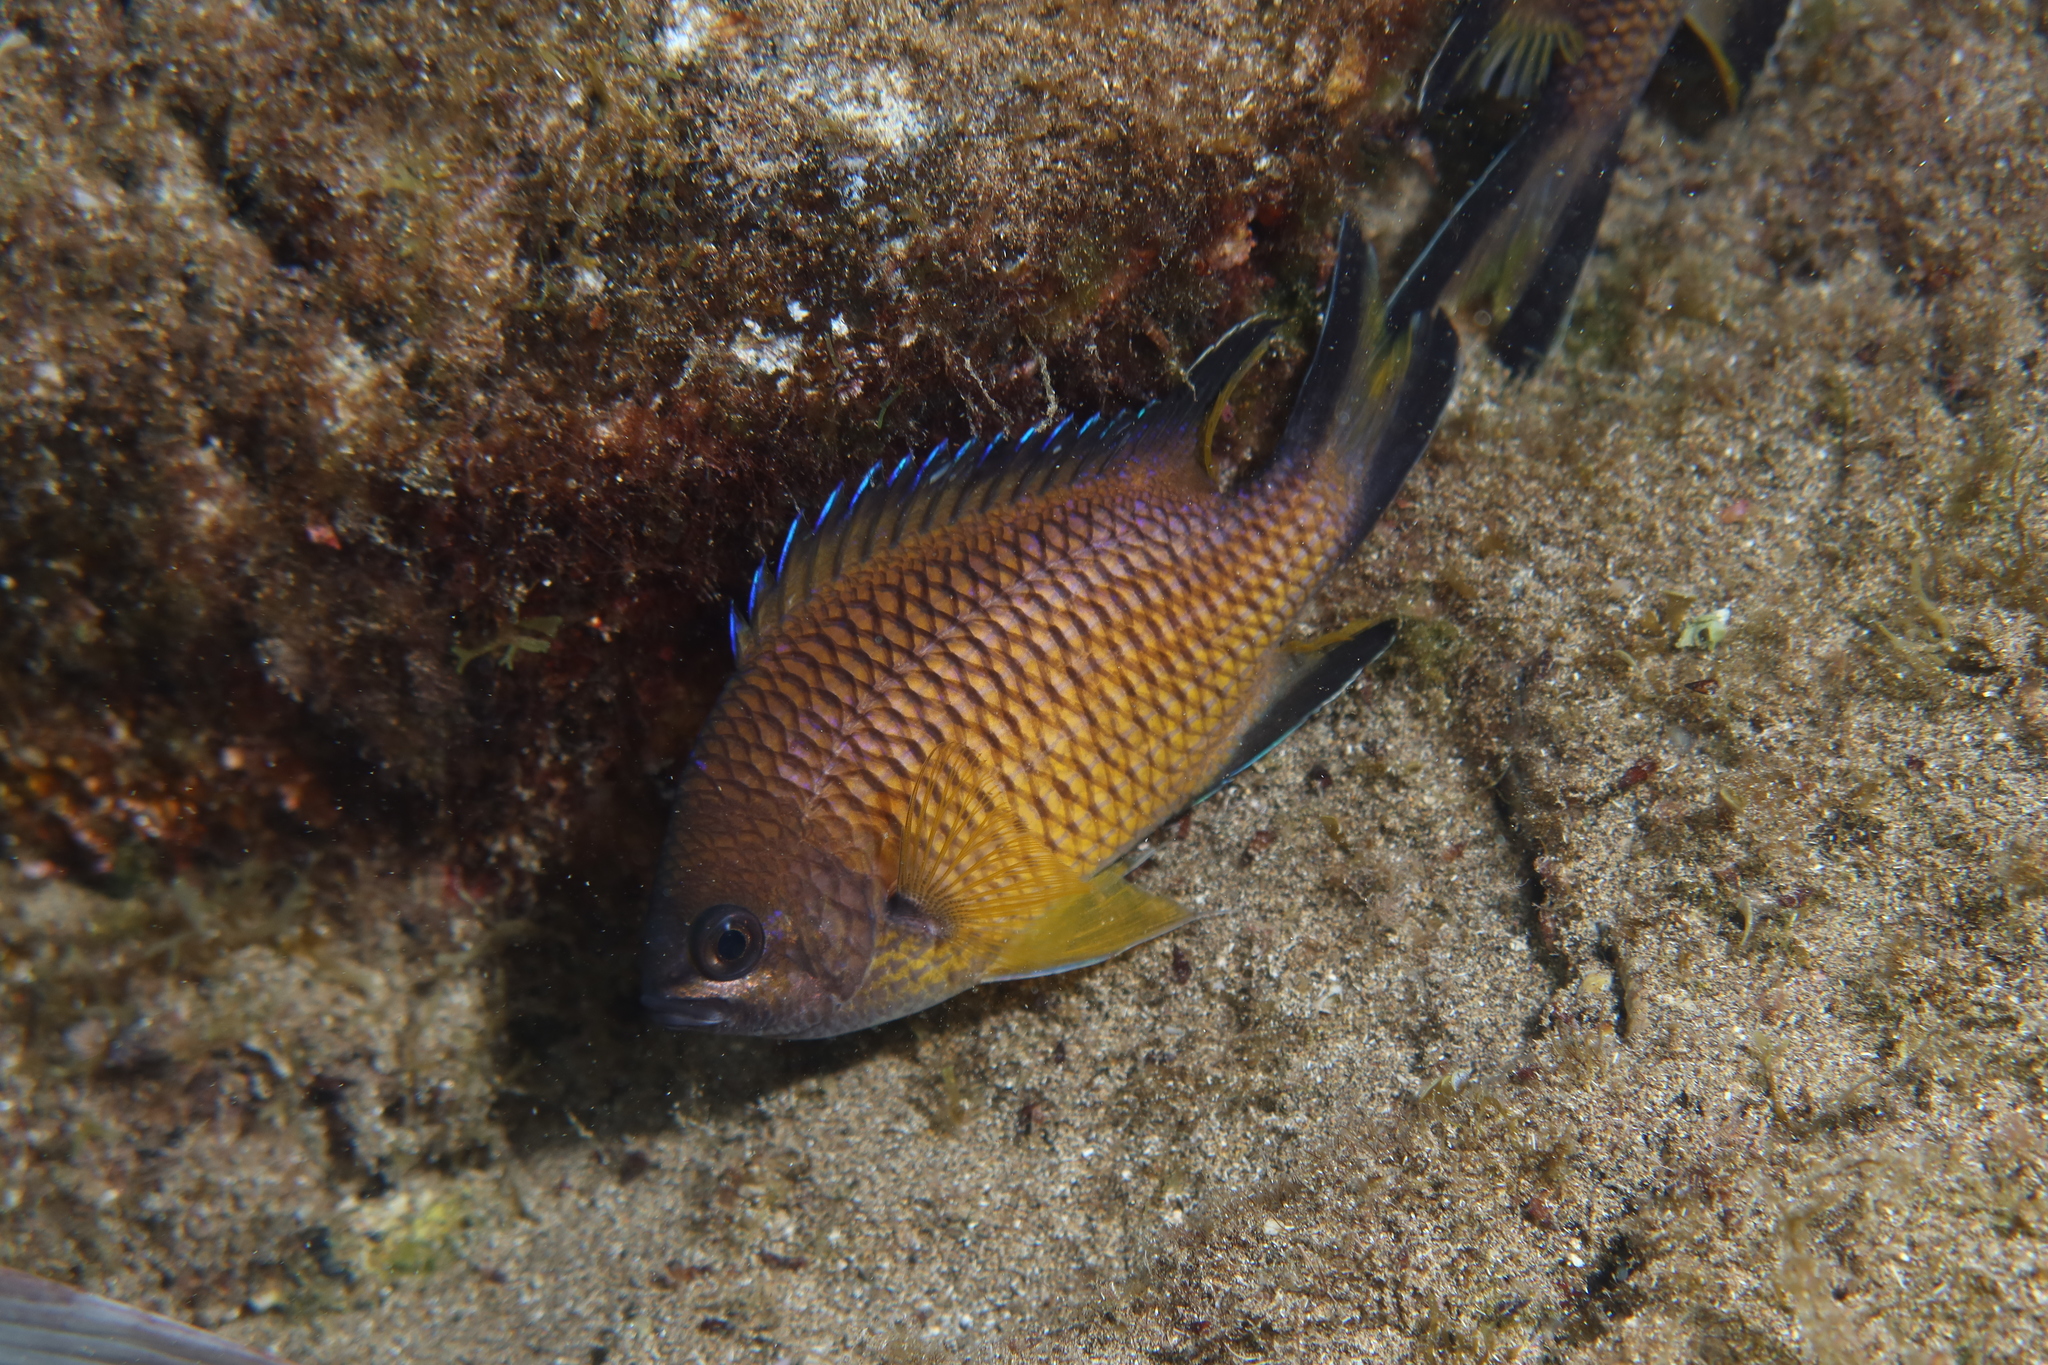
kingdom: Animalia
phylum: Chordata
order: Perciformes
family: Pomacentridae
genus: Chromis
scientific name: Chromis limbata
